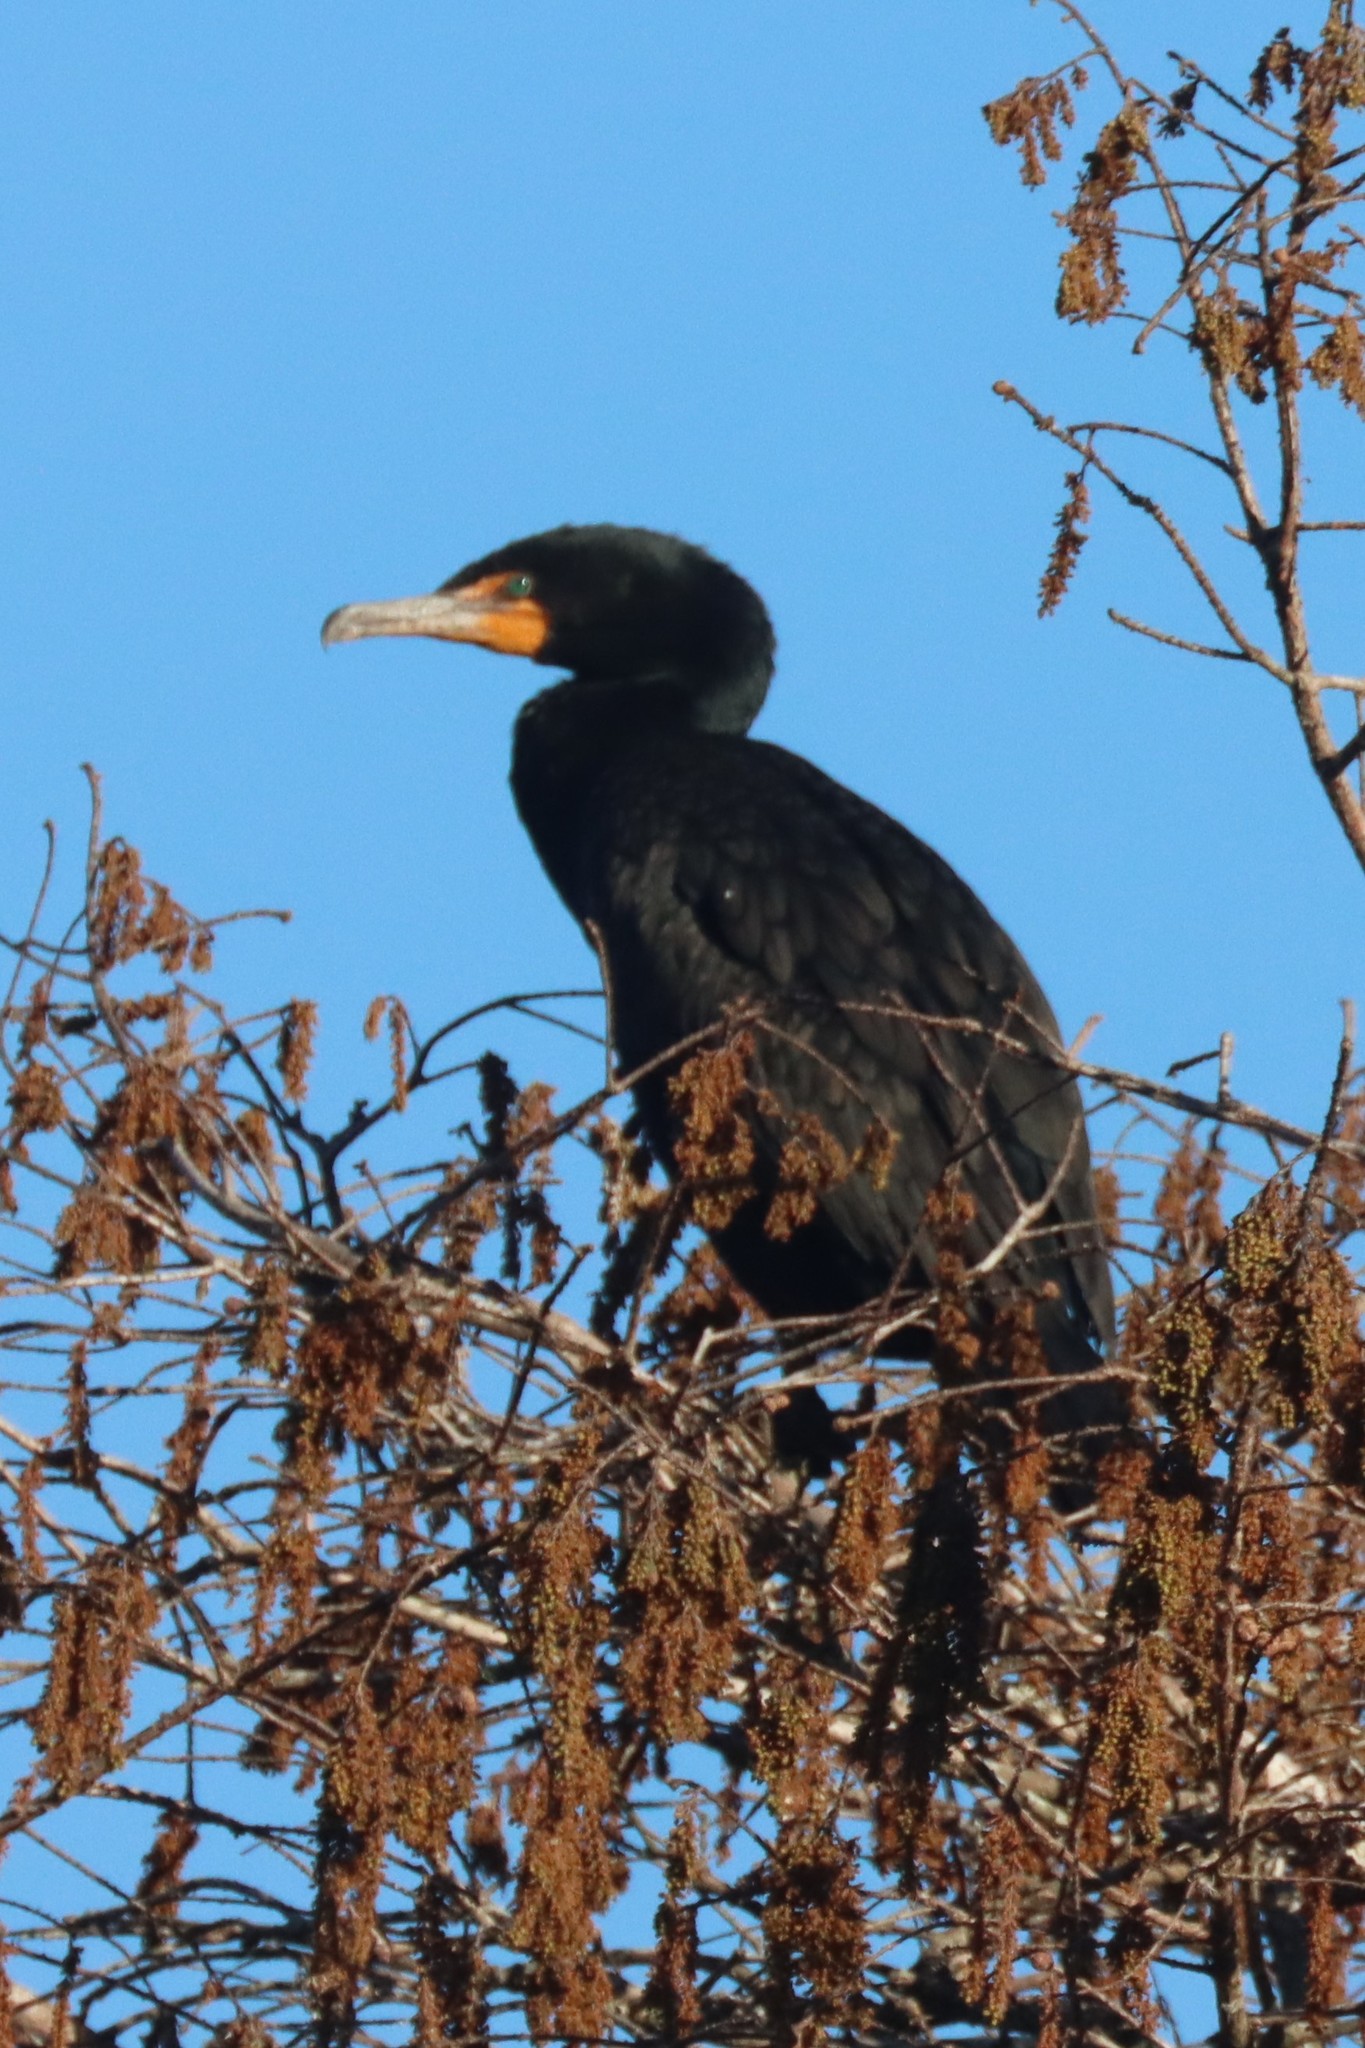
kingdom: Animalia
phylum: Chordata
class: Aves
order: Suliformes
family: Phalacrocoracidae
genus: Phalacrocorax
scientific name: Phalacrocorax auritus
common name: Double-crested cormorant
